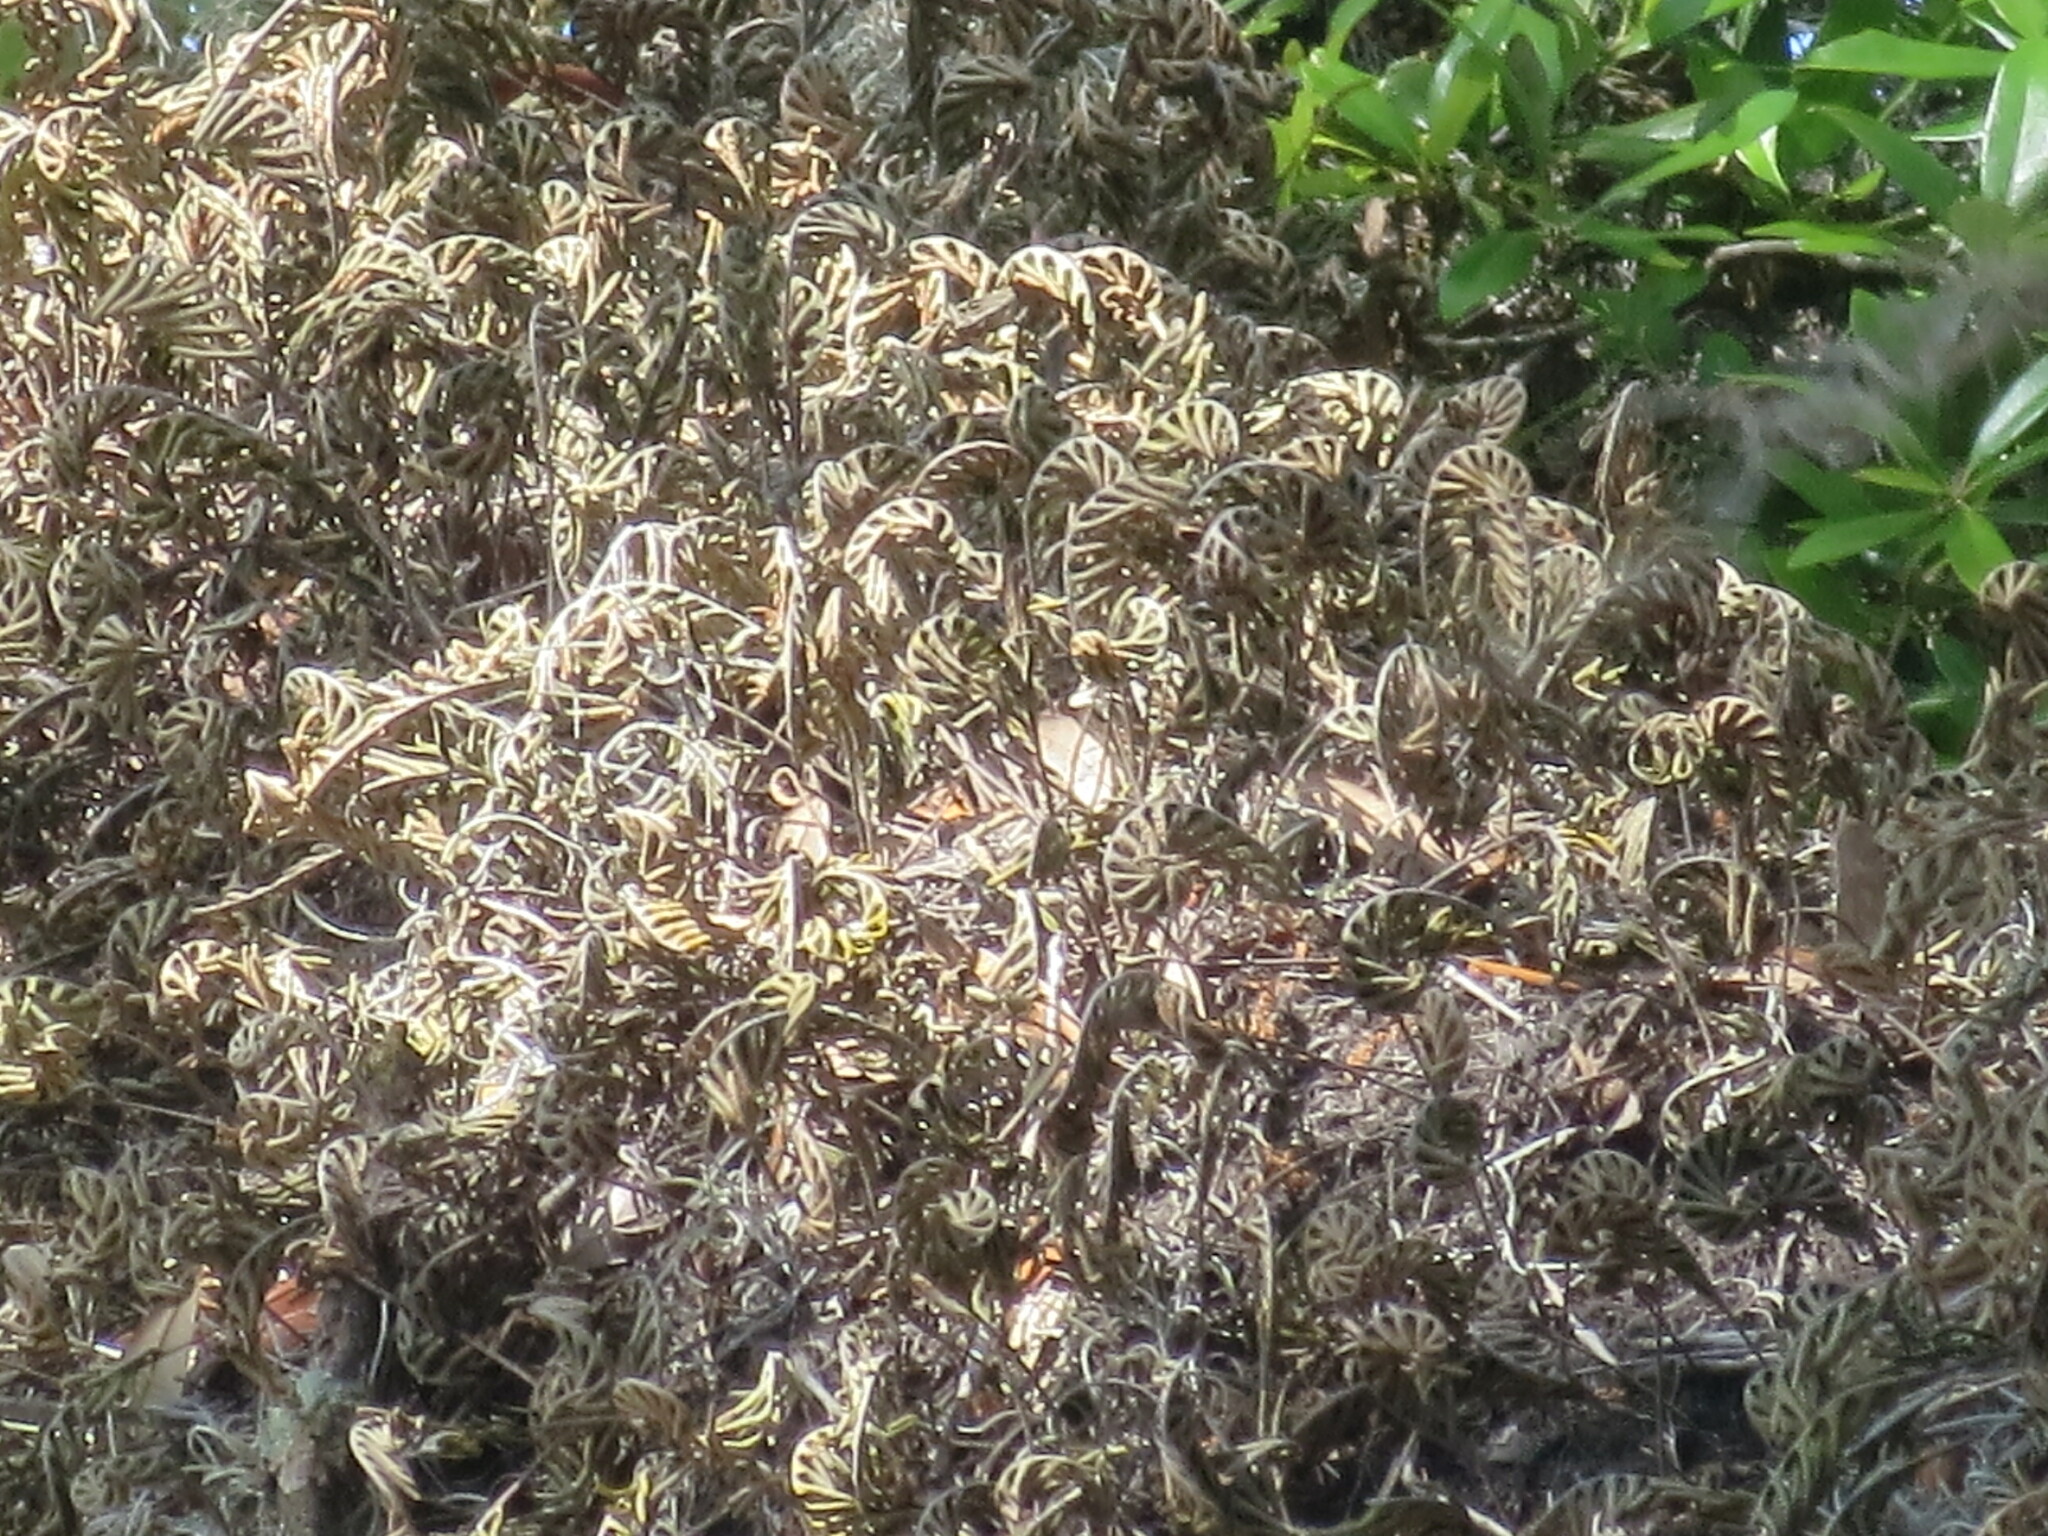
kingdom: Plantae
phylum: Tracheophyta
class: Polypodiopsida
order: Polypodiales
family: Polypodiaceae
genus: Pleopeltis
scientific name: Pleopeltis michauxiana
